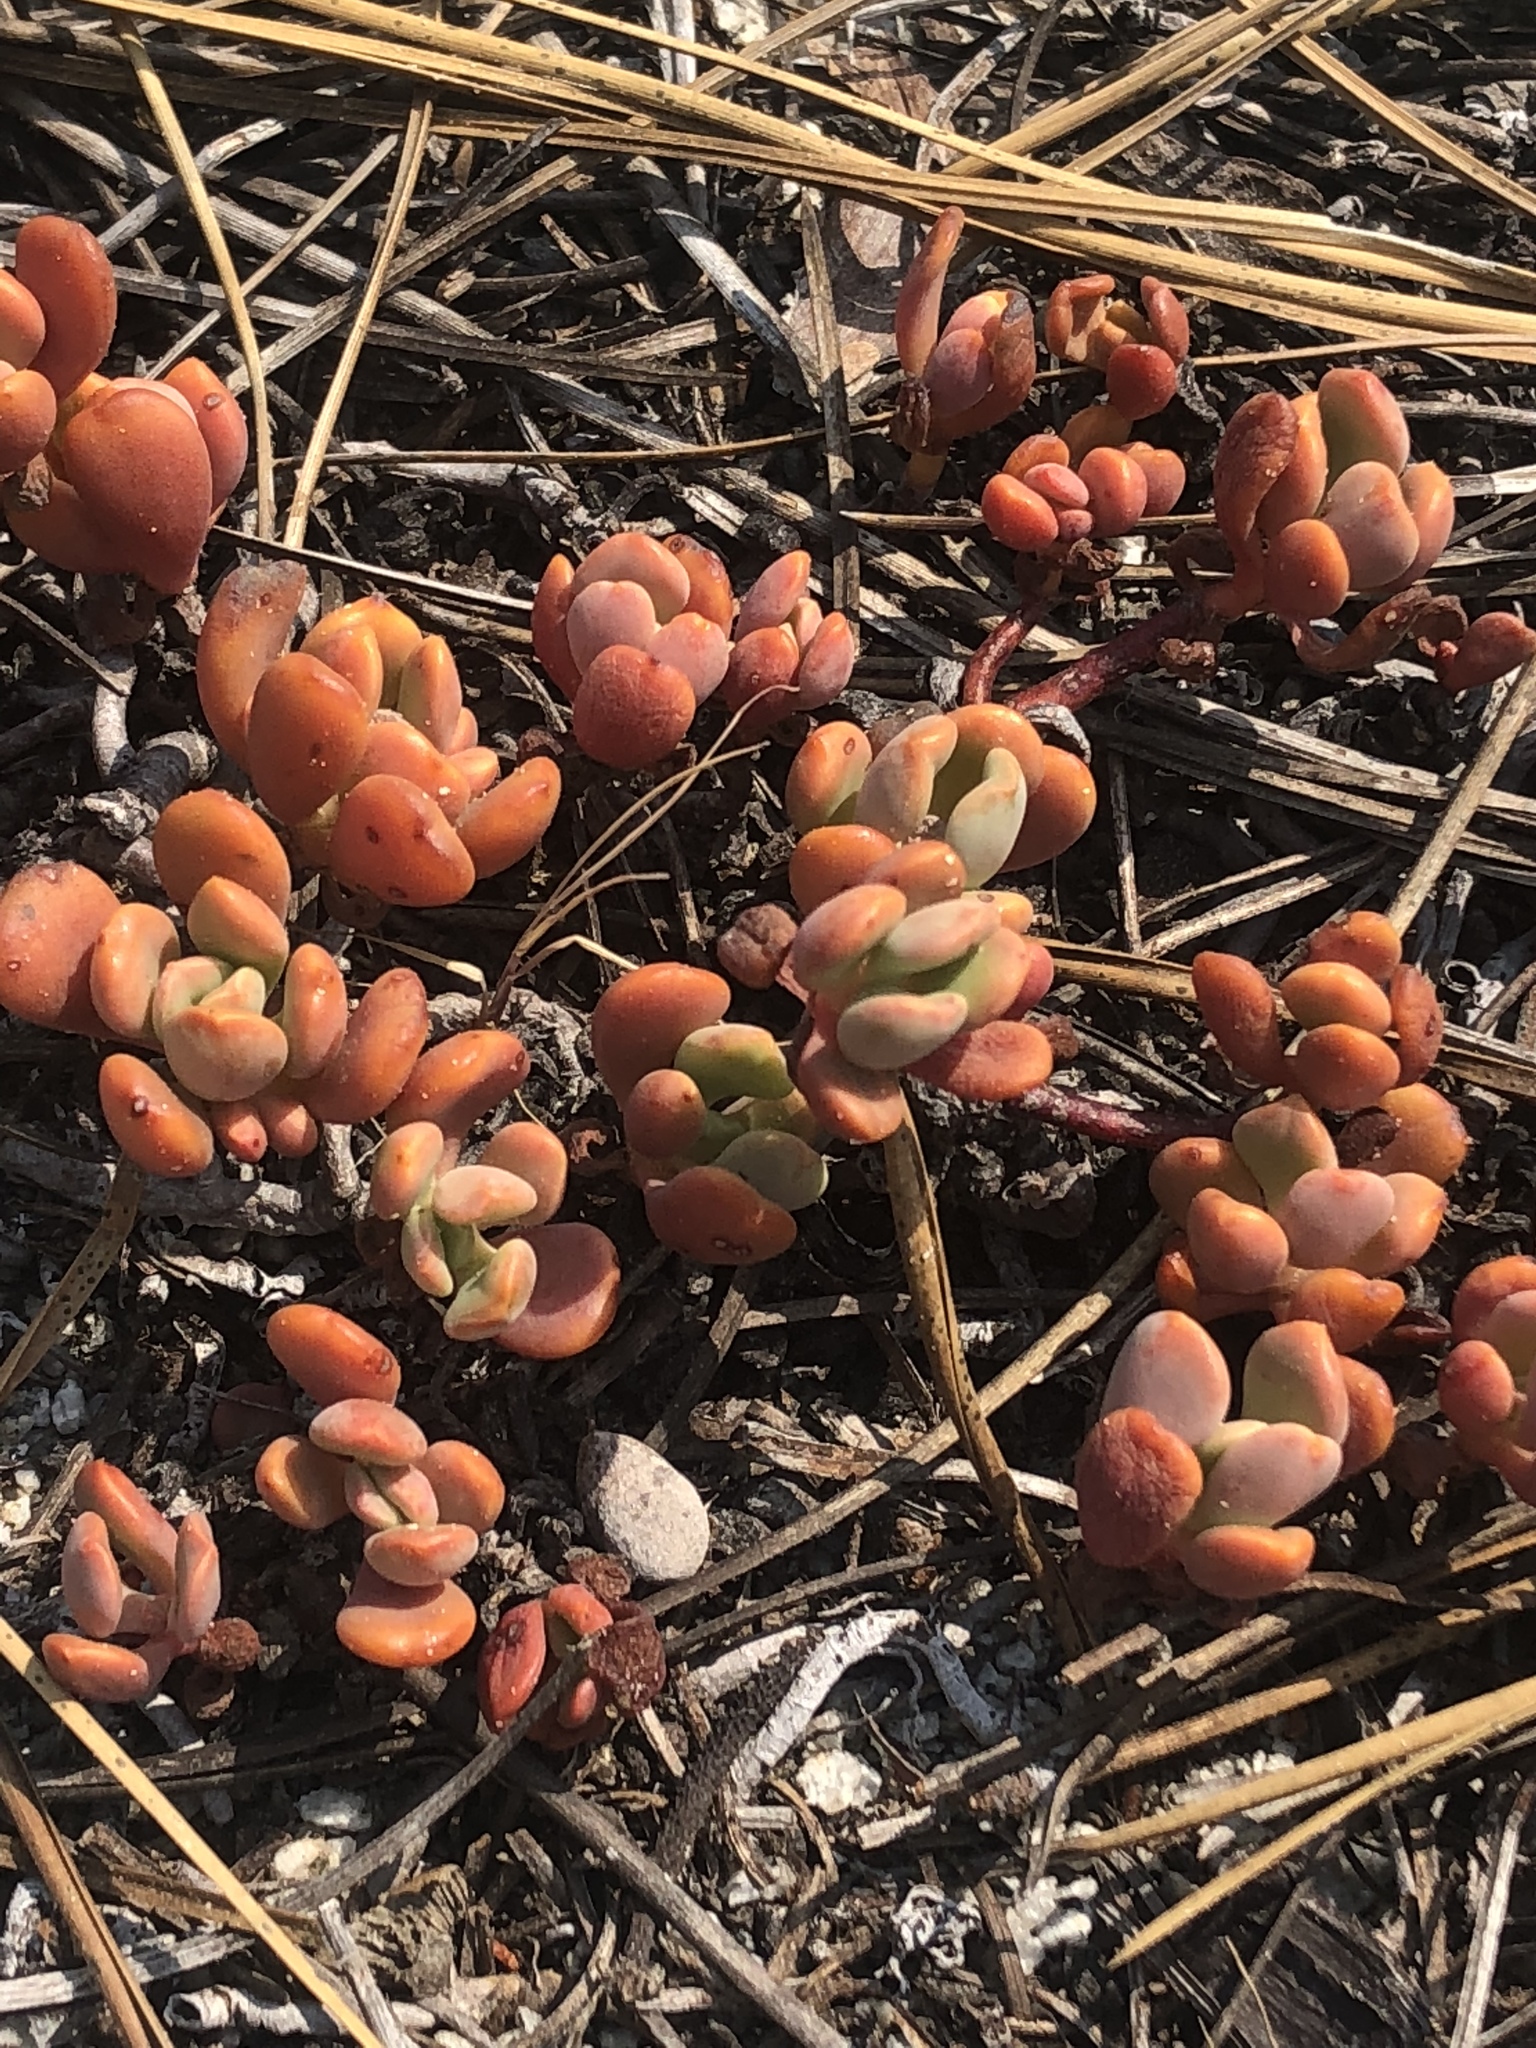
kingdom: Plantae
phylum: Tracheophyta
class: Magnoliopsida
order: Saxifragales
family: Crassulaceae
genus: Sedum
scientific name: Sedum obtusatum
